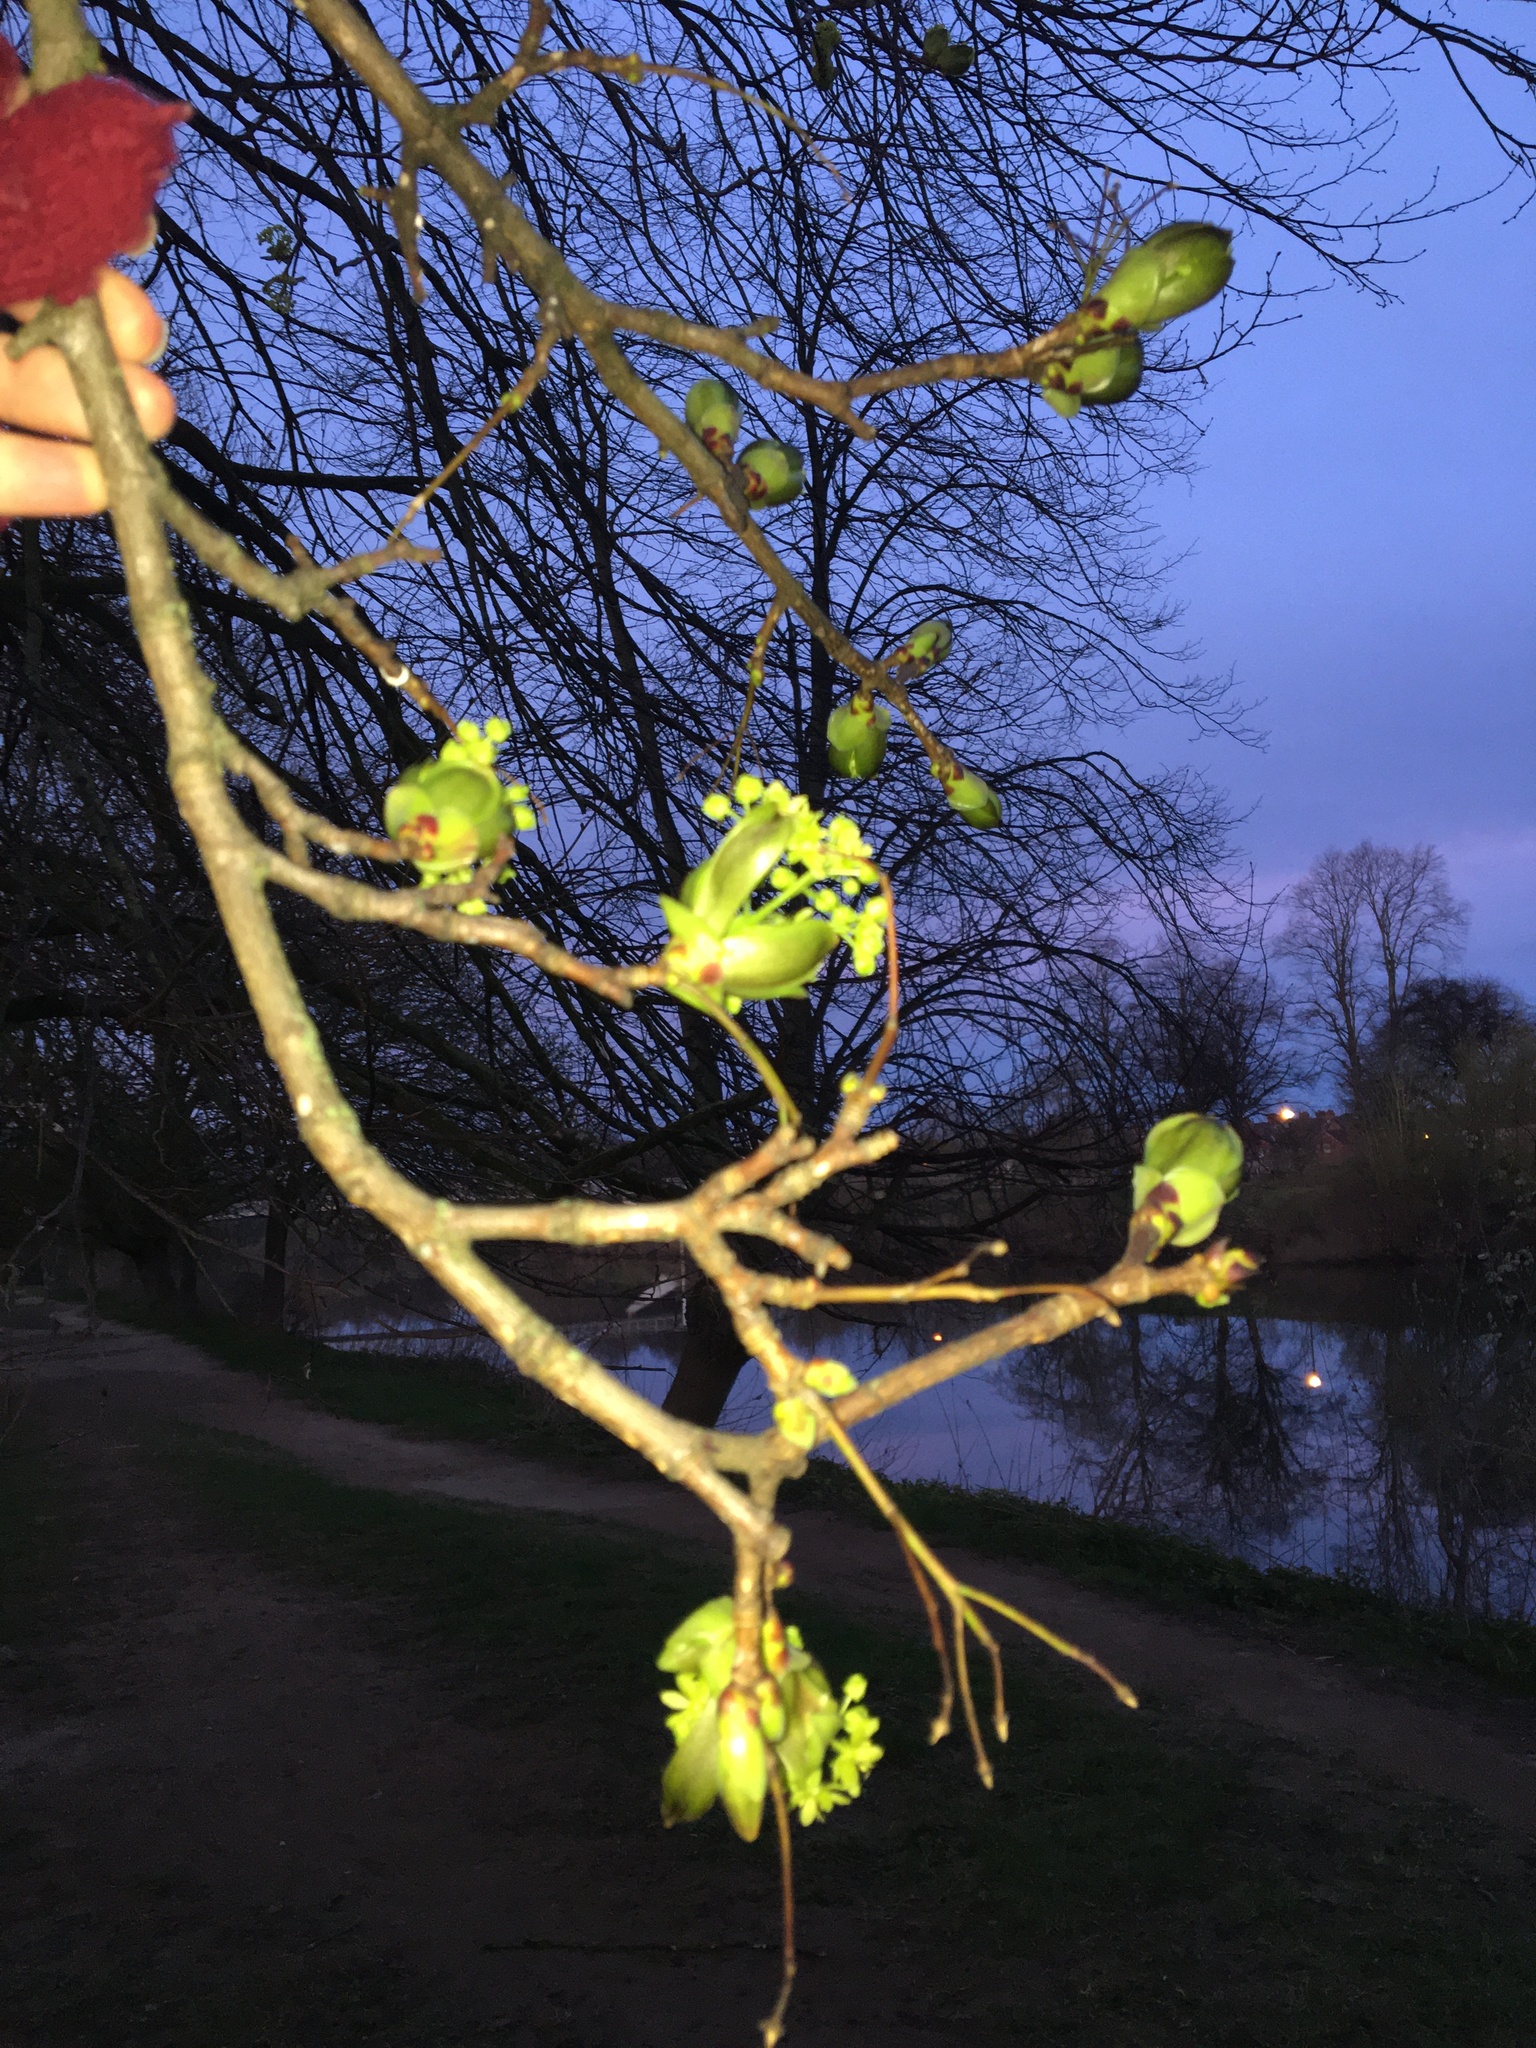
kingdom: Plantae
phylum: Tracheophyta
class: Magnoliopsida
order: Sapindales
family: Sapindaceae
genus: Acer
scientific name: Acer platanoides
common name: Norway maple
